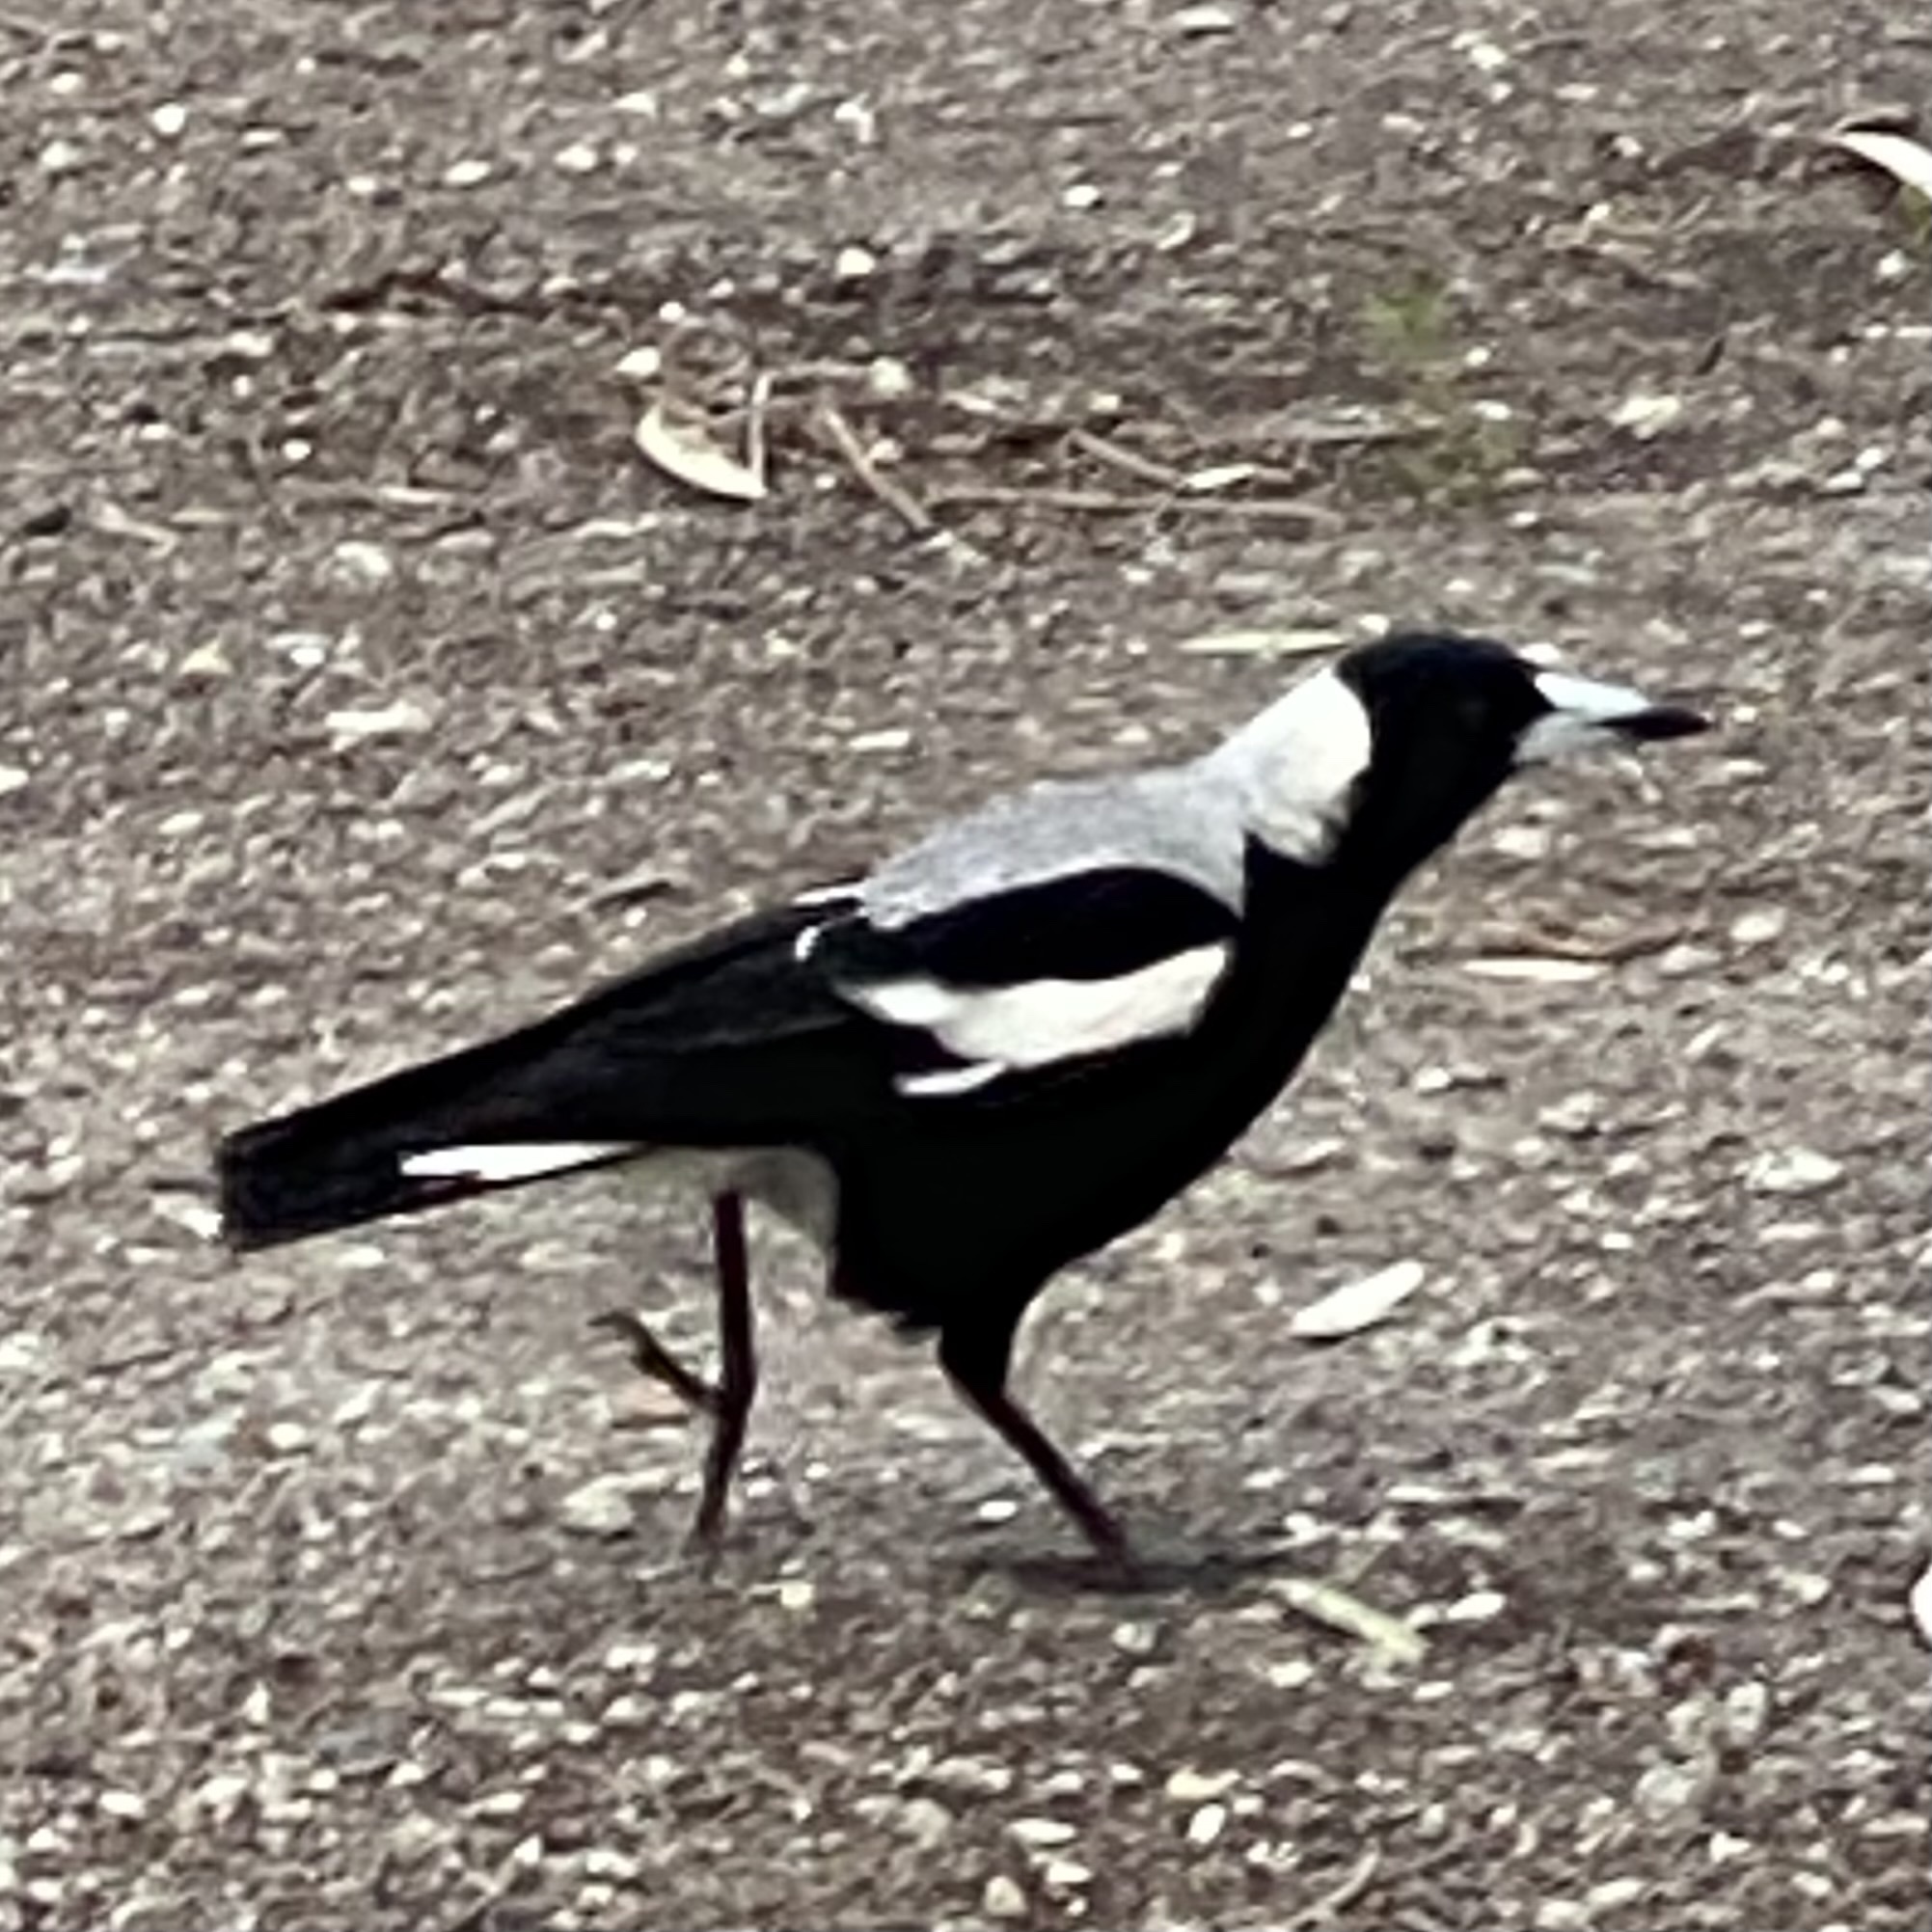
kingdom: Animalia
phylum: Chordata
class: Aves
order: Passeriformes
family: Cracticidae
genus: Gymnorhina
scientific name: Gymnorhina tibicen
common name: Australian magpie
